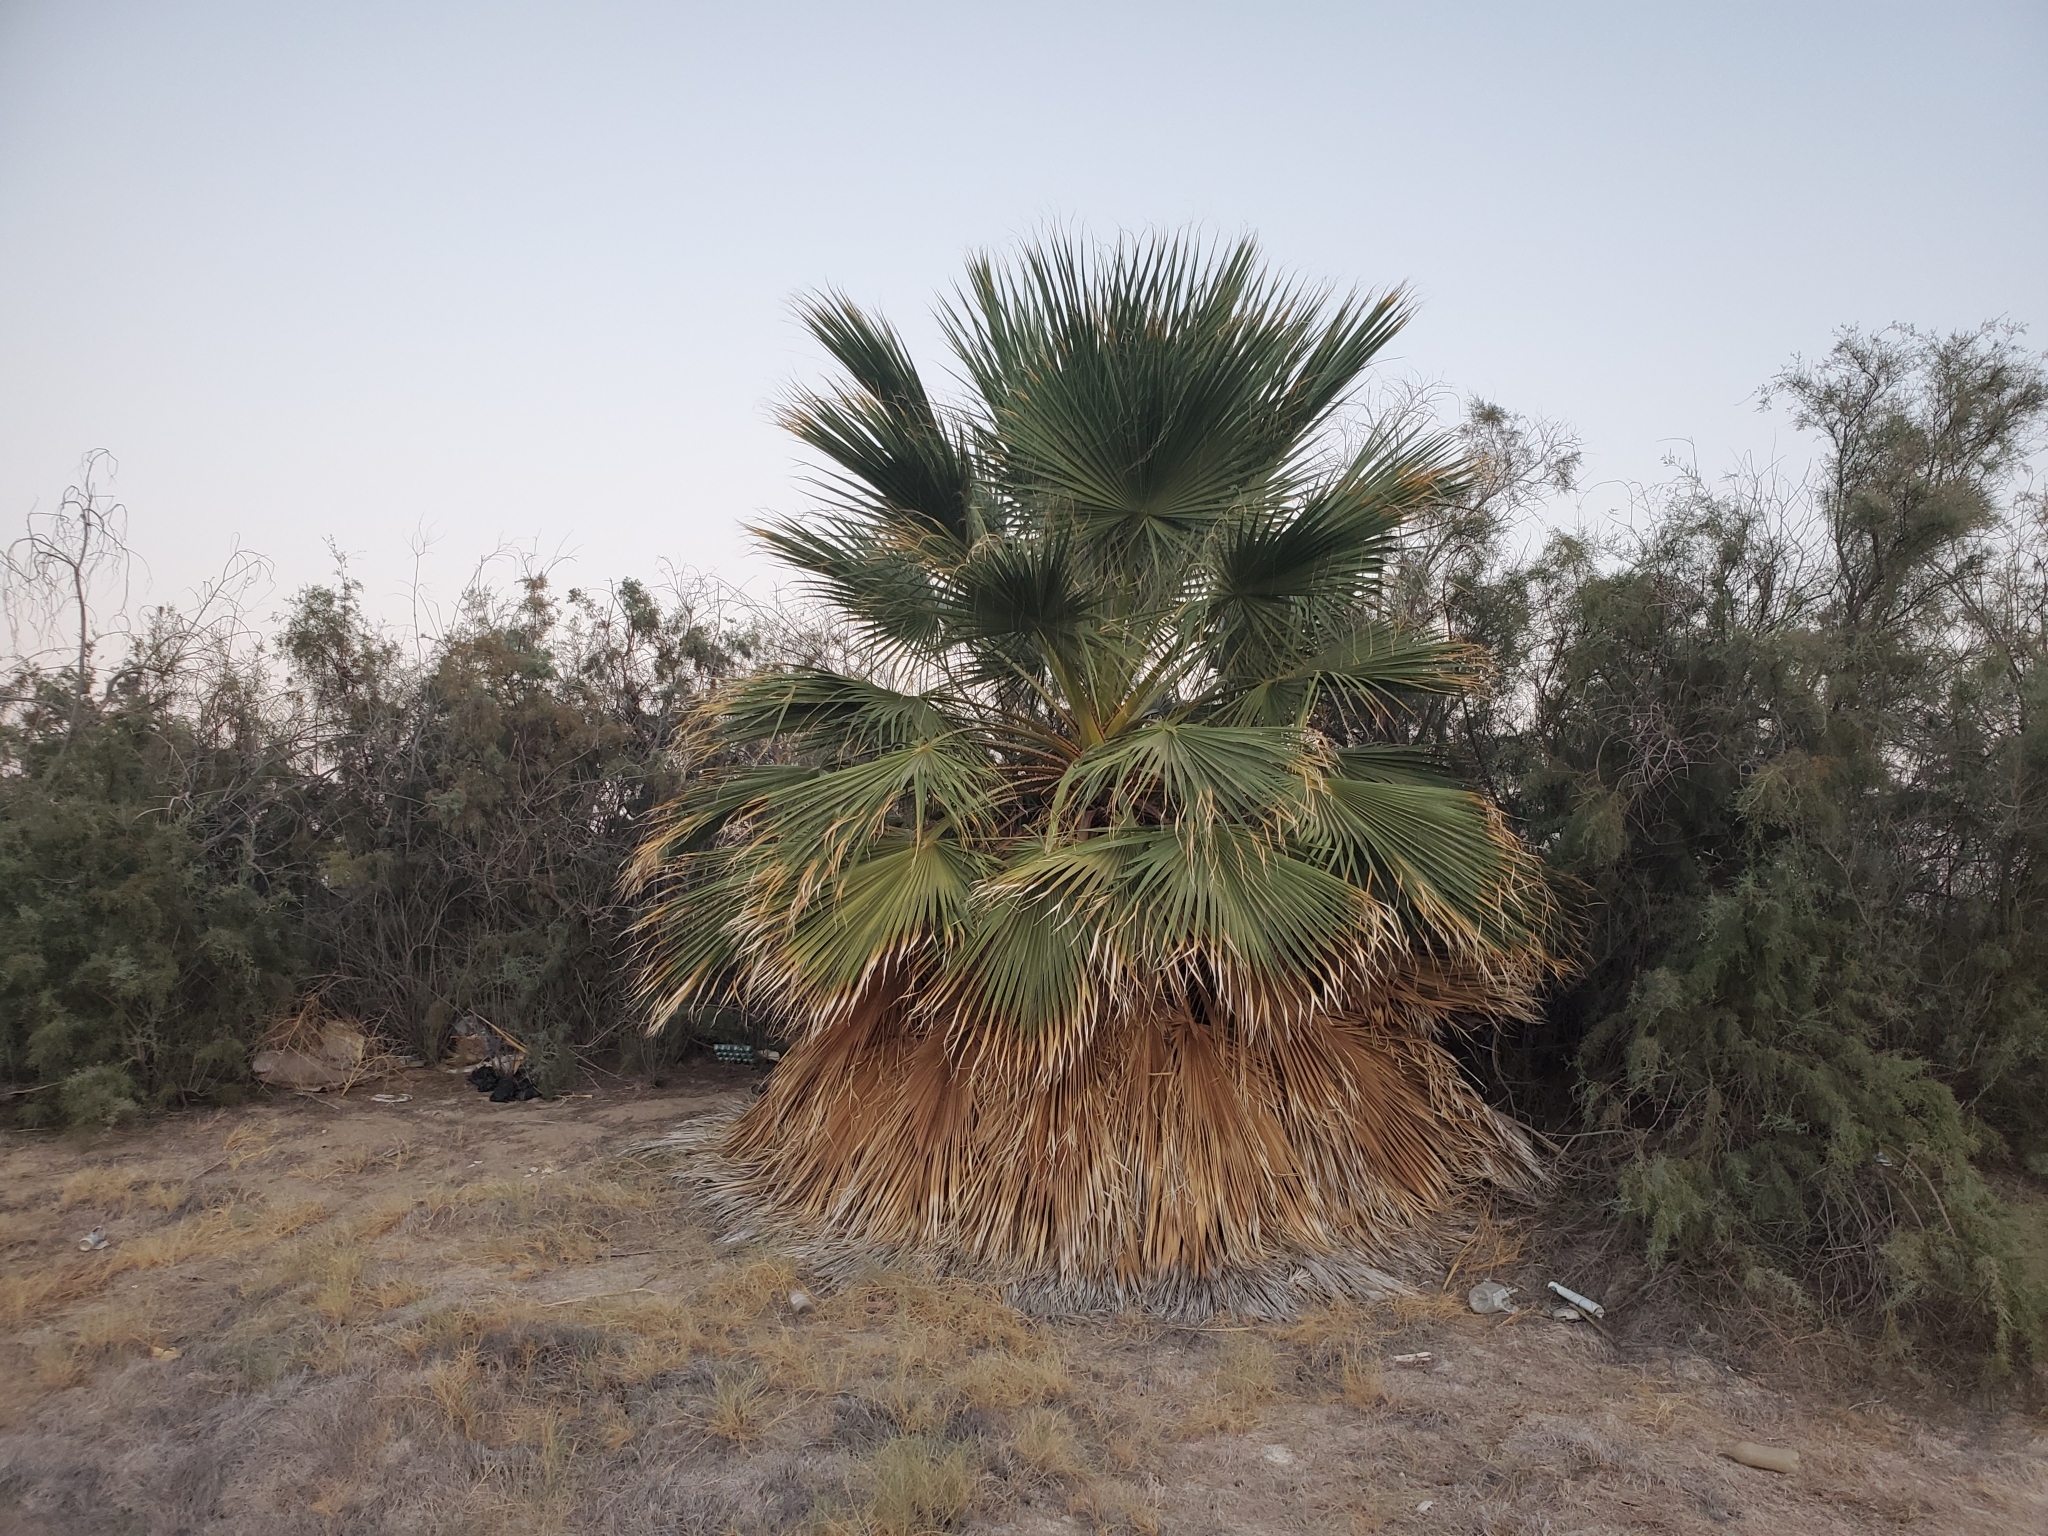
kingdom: Plantae
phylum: Tracheophyta
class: Liliopsida
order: Arecales
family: Arecaceae
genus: Washingtonia
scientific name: Washingtonia filifera
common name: California fan palm
